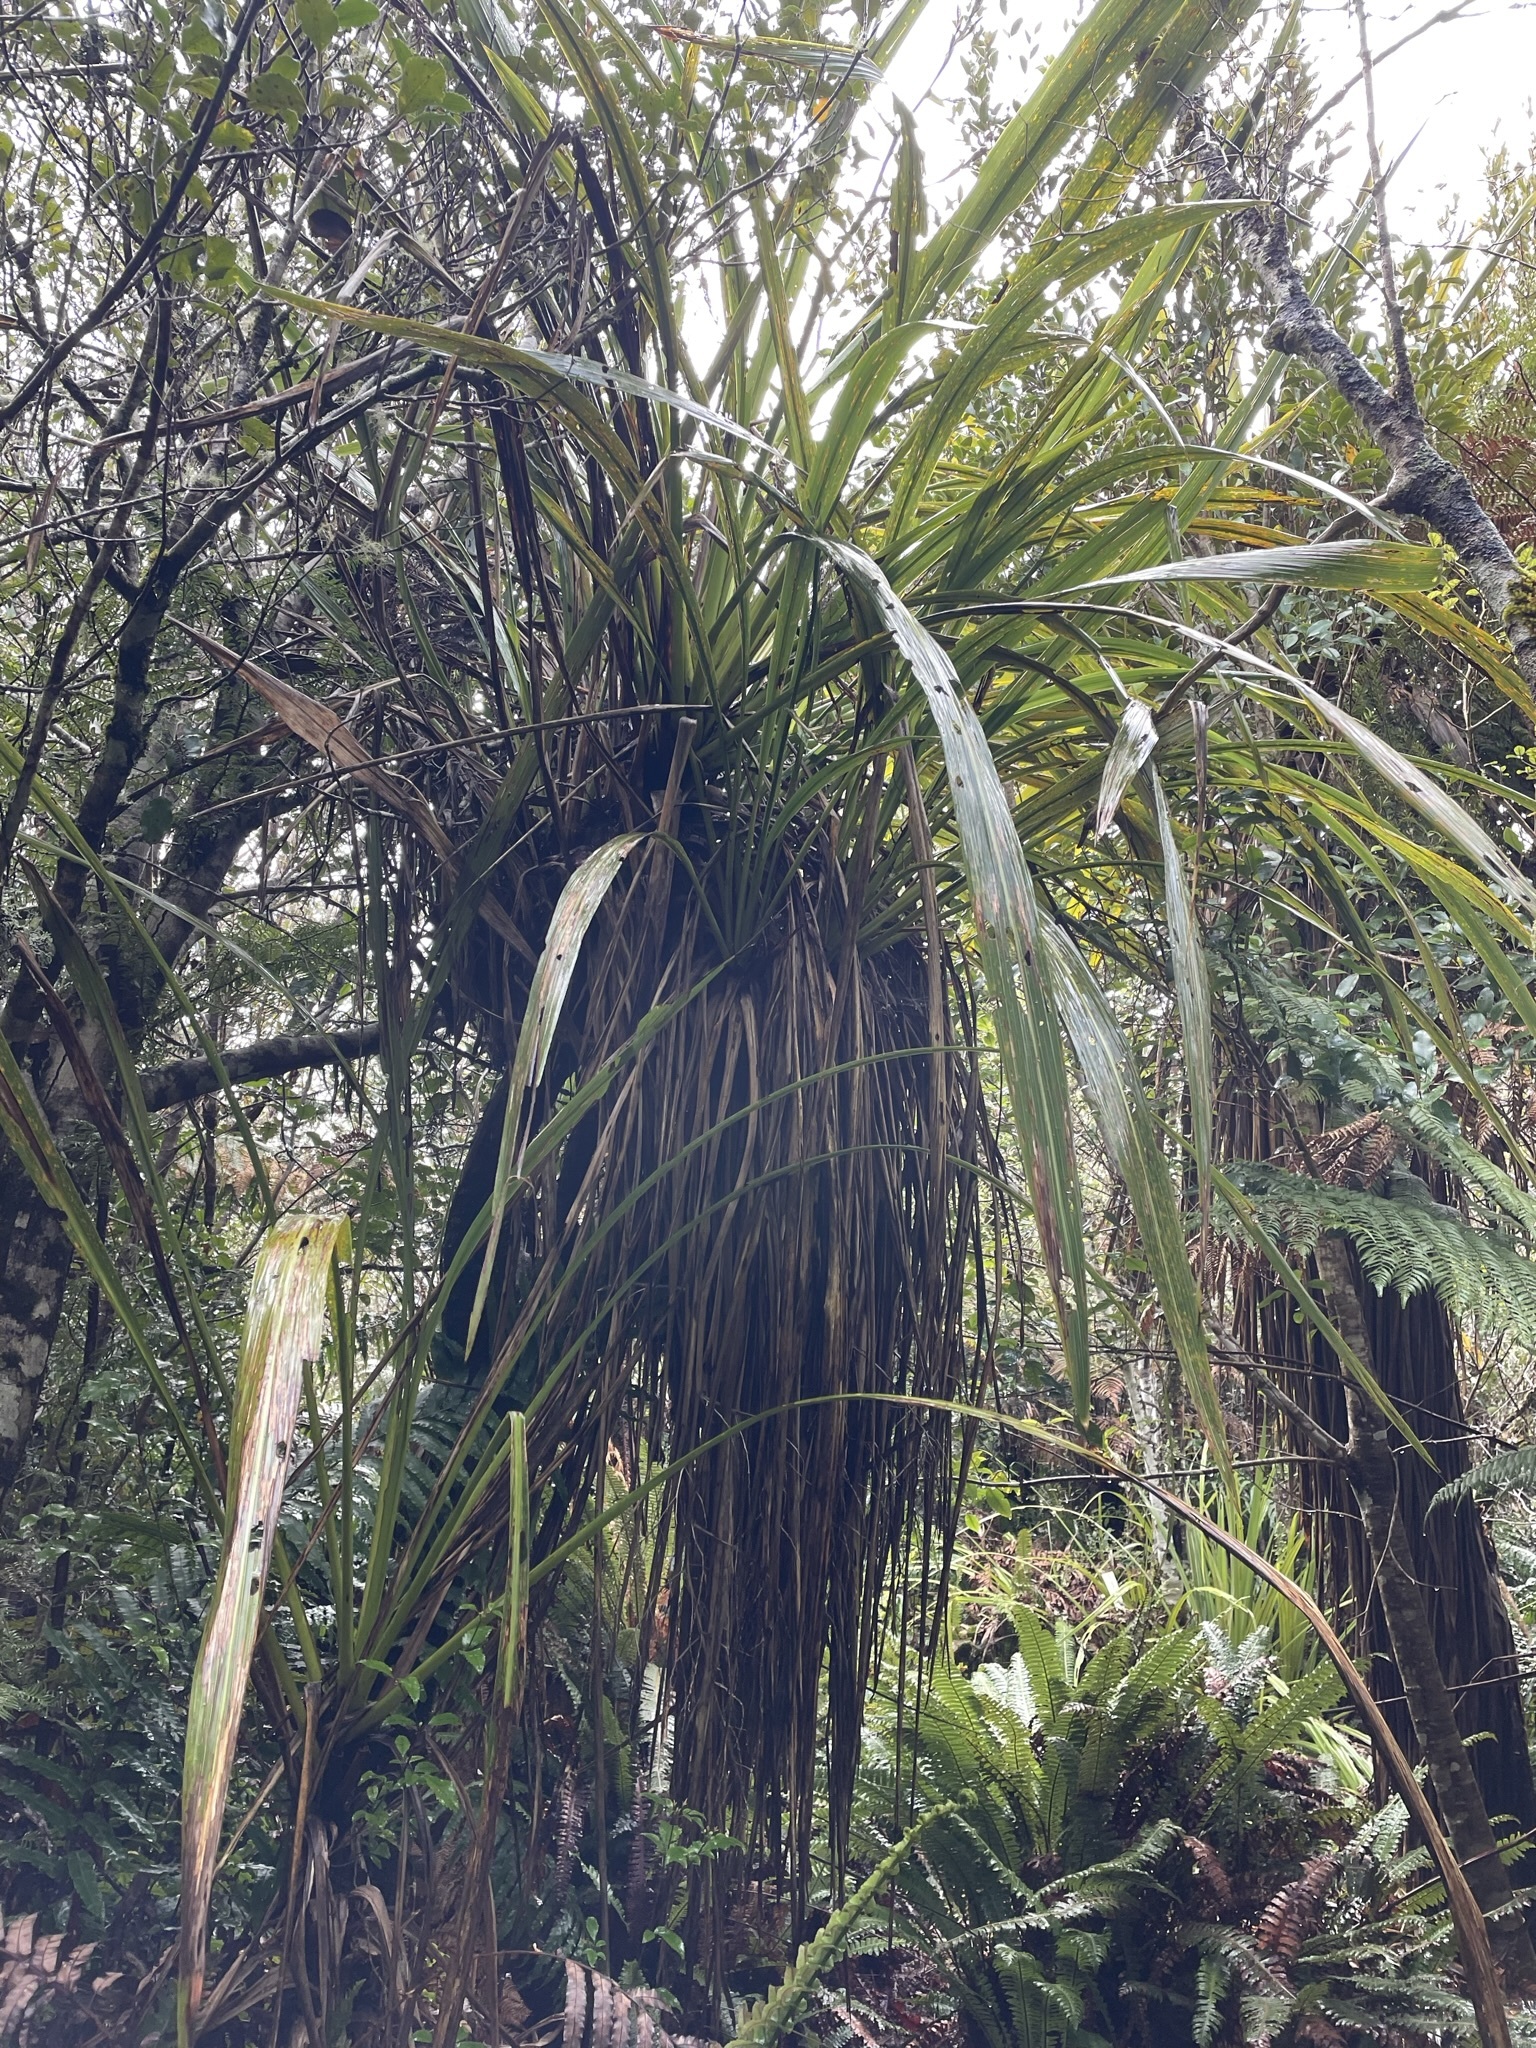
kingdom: Plantae
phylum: Tracheophyta
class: Liliopsida
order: Asparagales
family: Asparagaceae
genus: Cordyline
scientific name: Cordyline banksii
